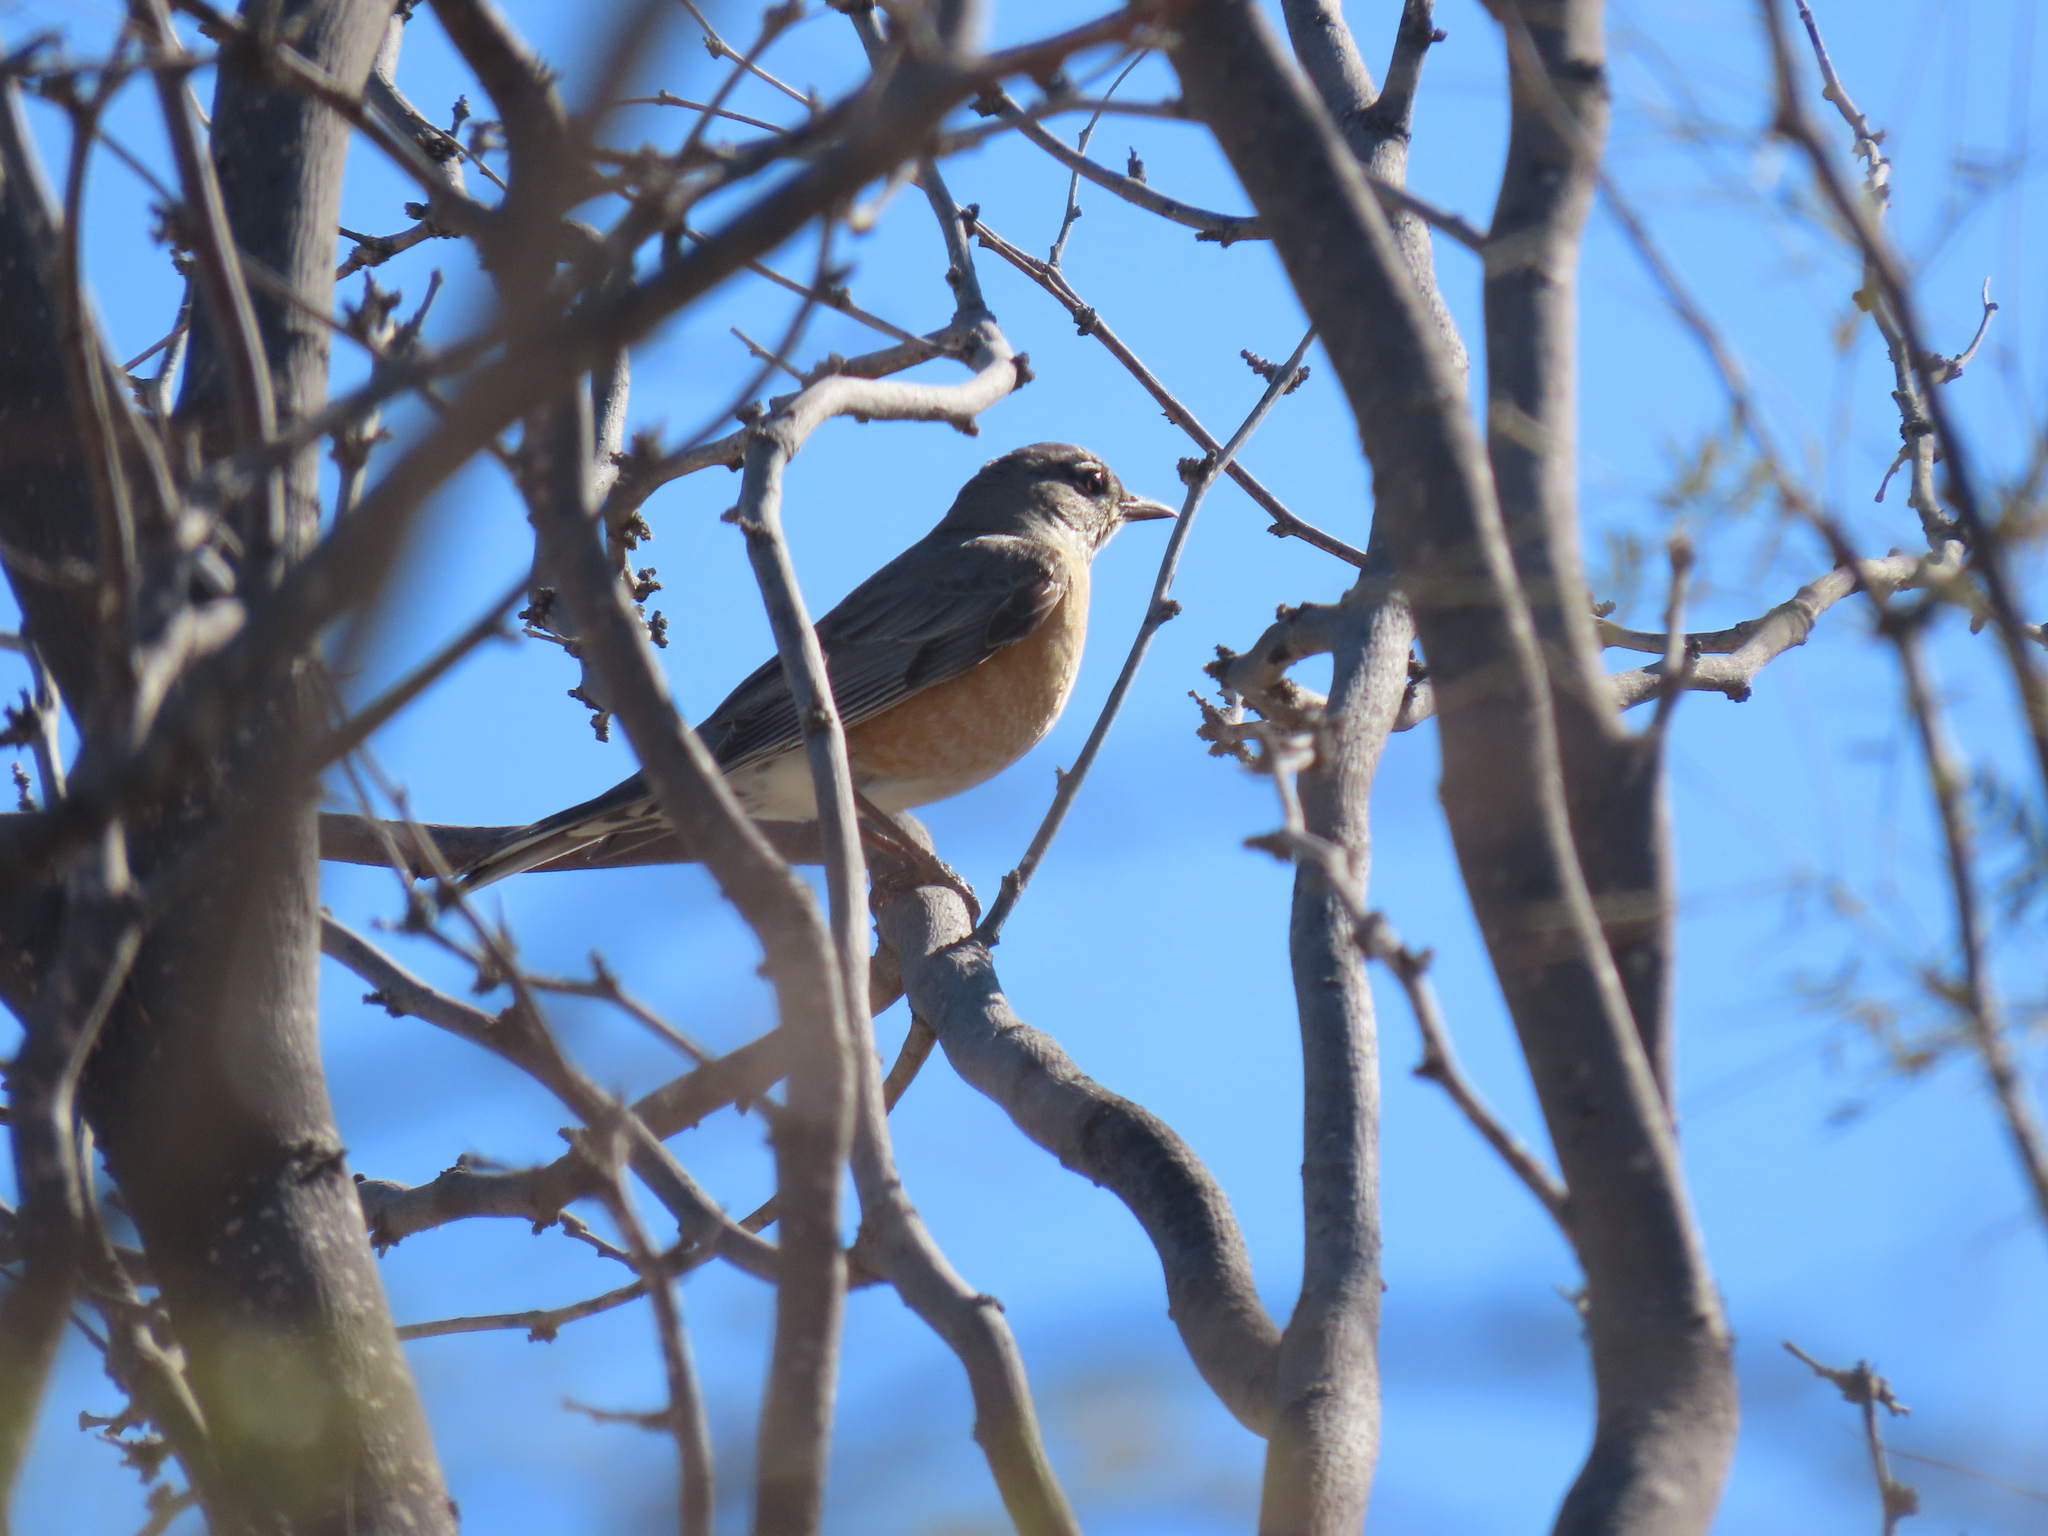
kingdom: Animalia
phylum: Chordata
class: Aves
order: Passeriformes
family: Turdidae
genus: Turdus
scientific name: Turdus migratorius
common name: American robin
